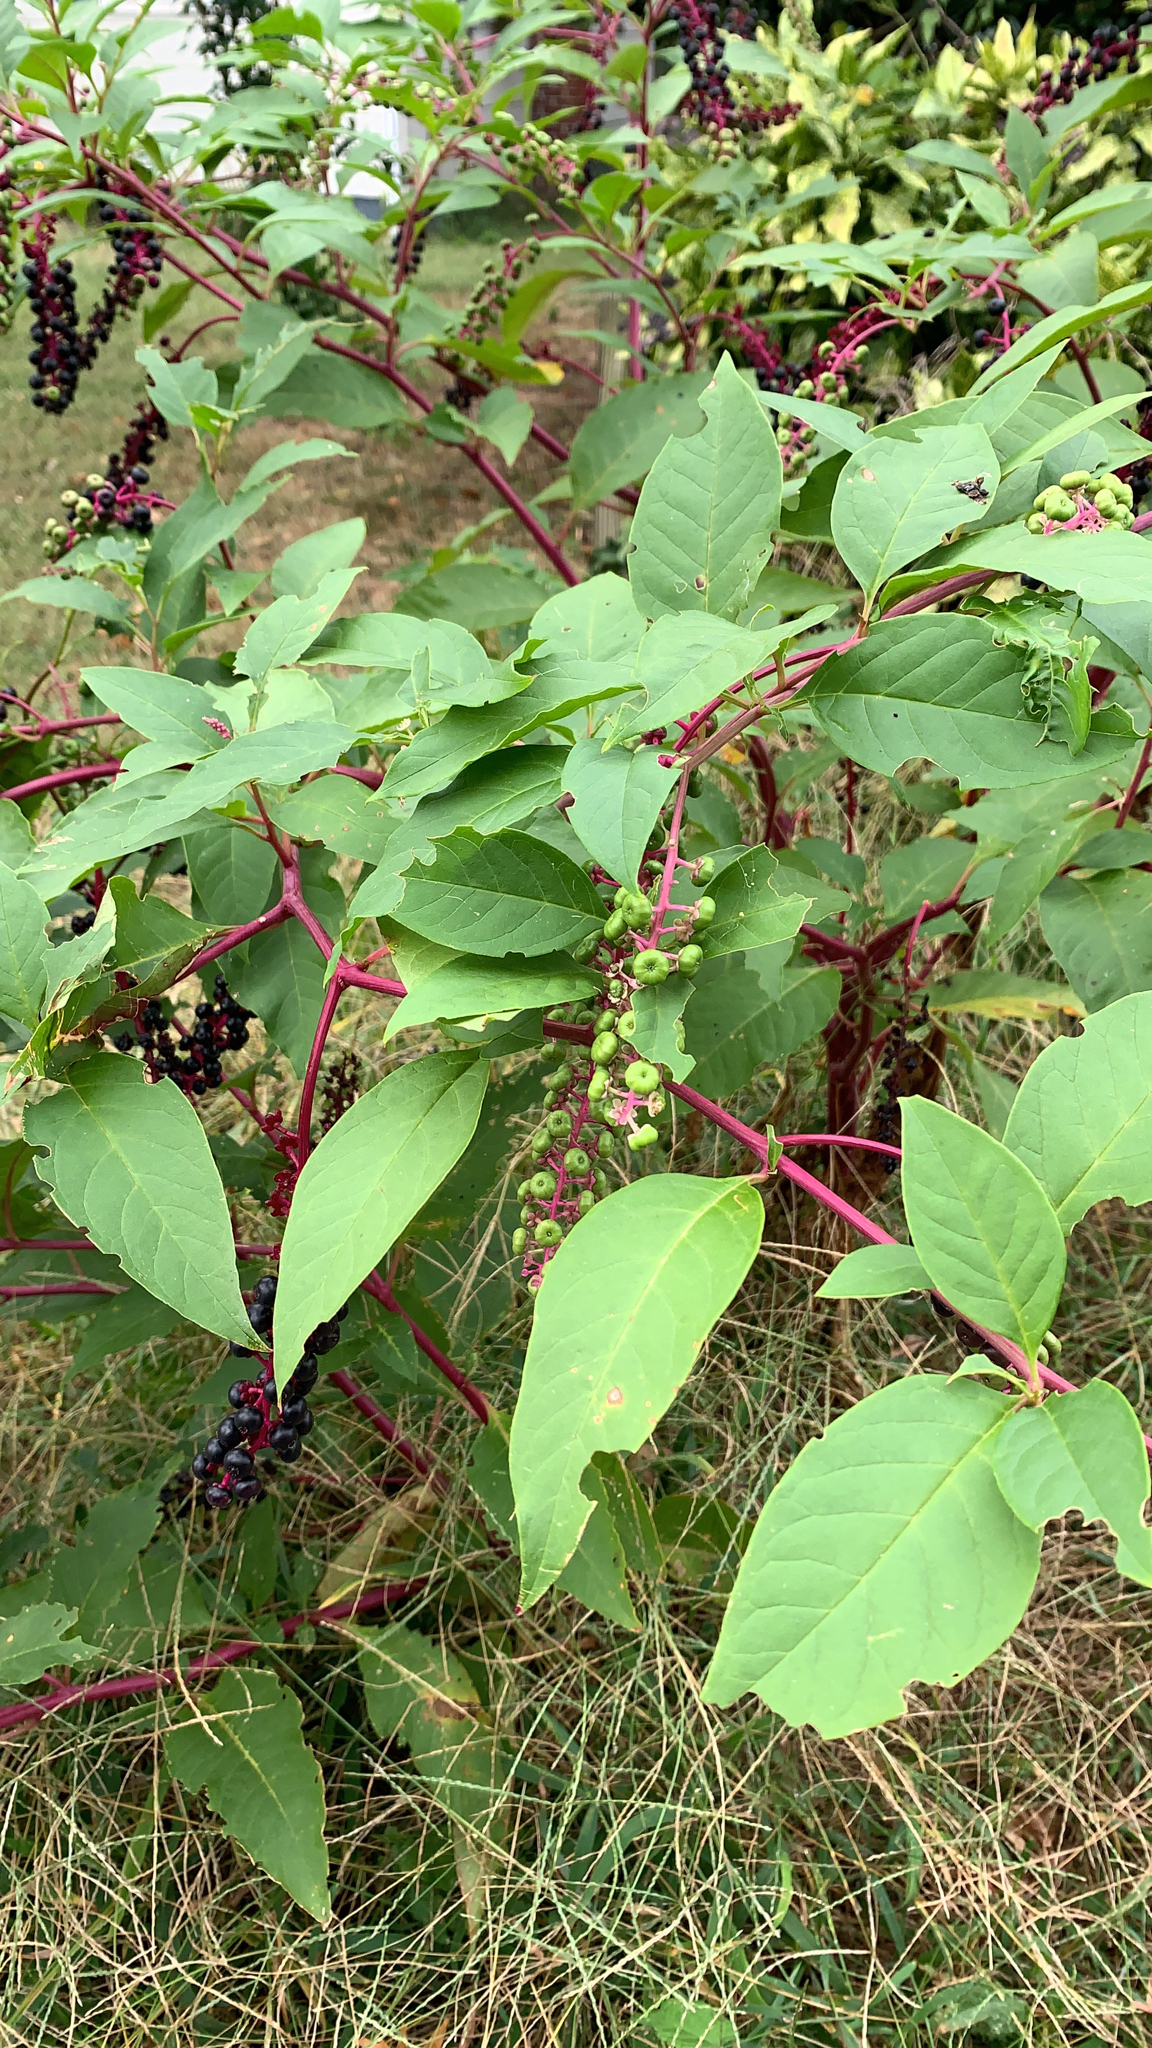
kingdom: Plantae
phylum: Tracheophyta
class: Magnoliopsida
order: Caryophyllales
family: Phytolaccaceae
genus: Phytolacca
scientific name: Phytolacca americana
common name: American pokeweed
